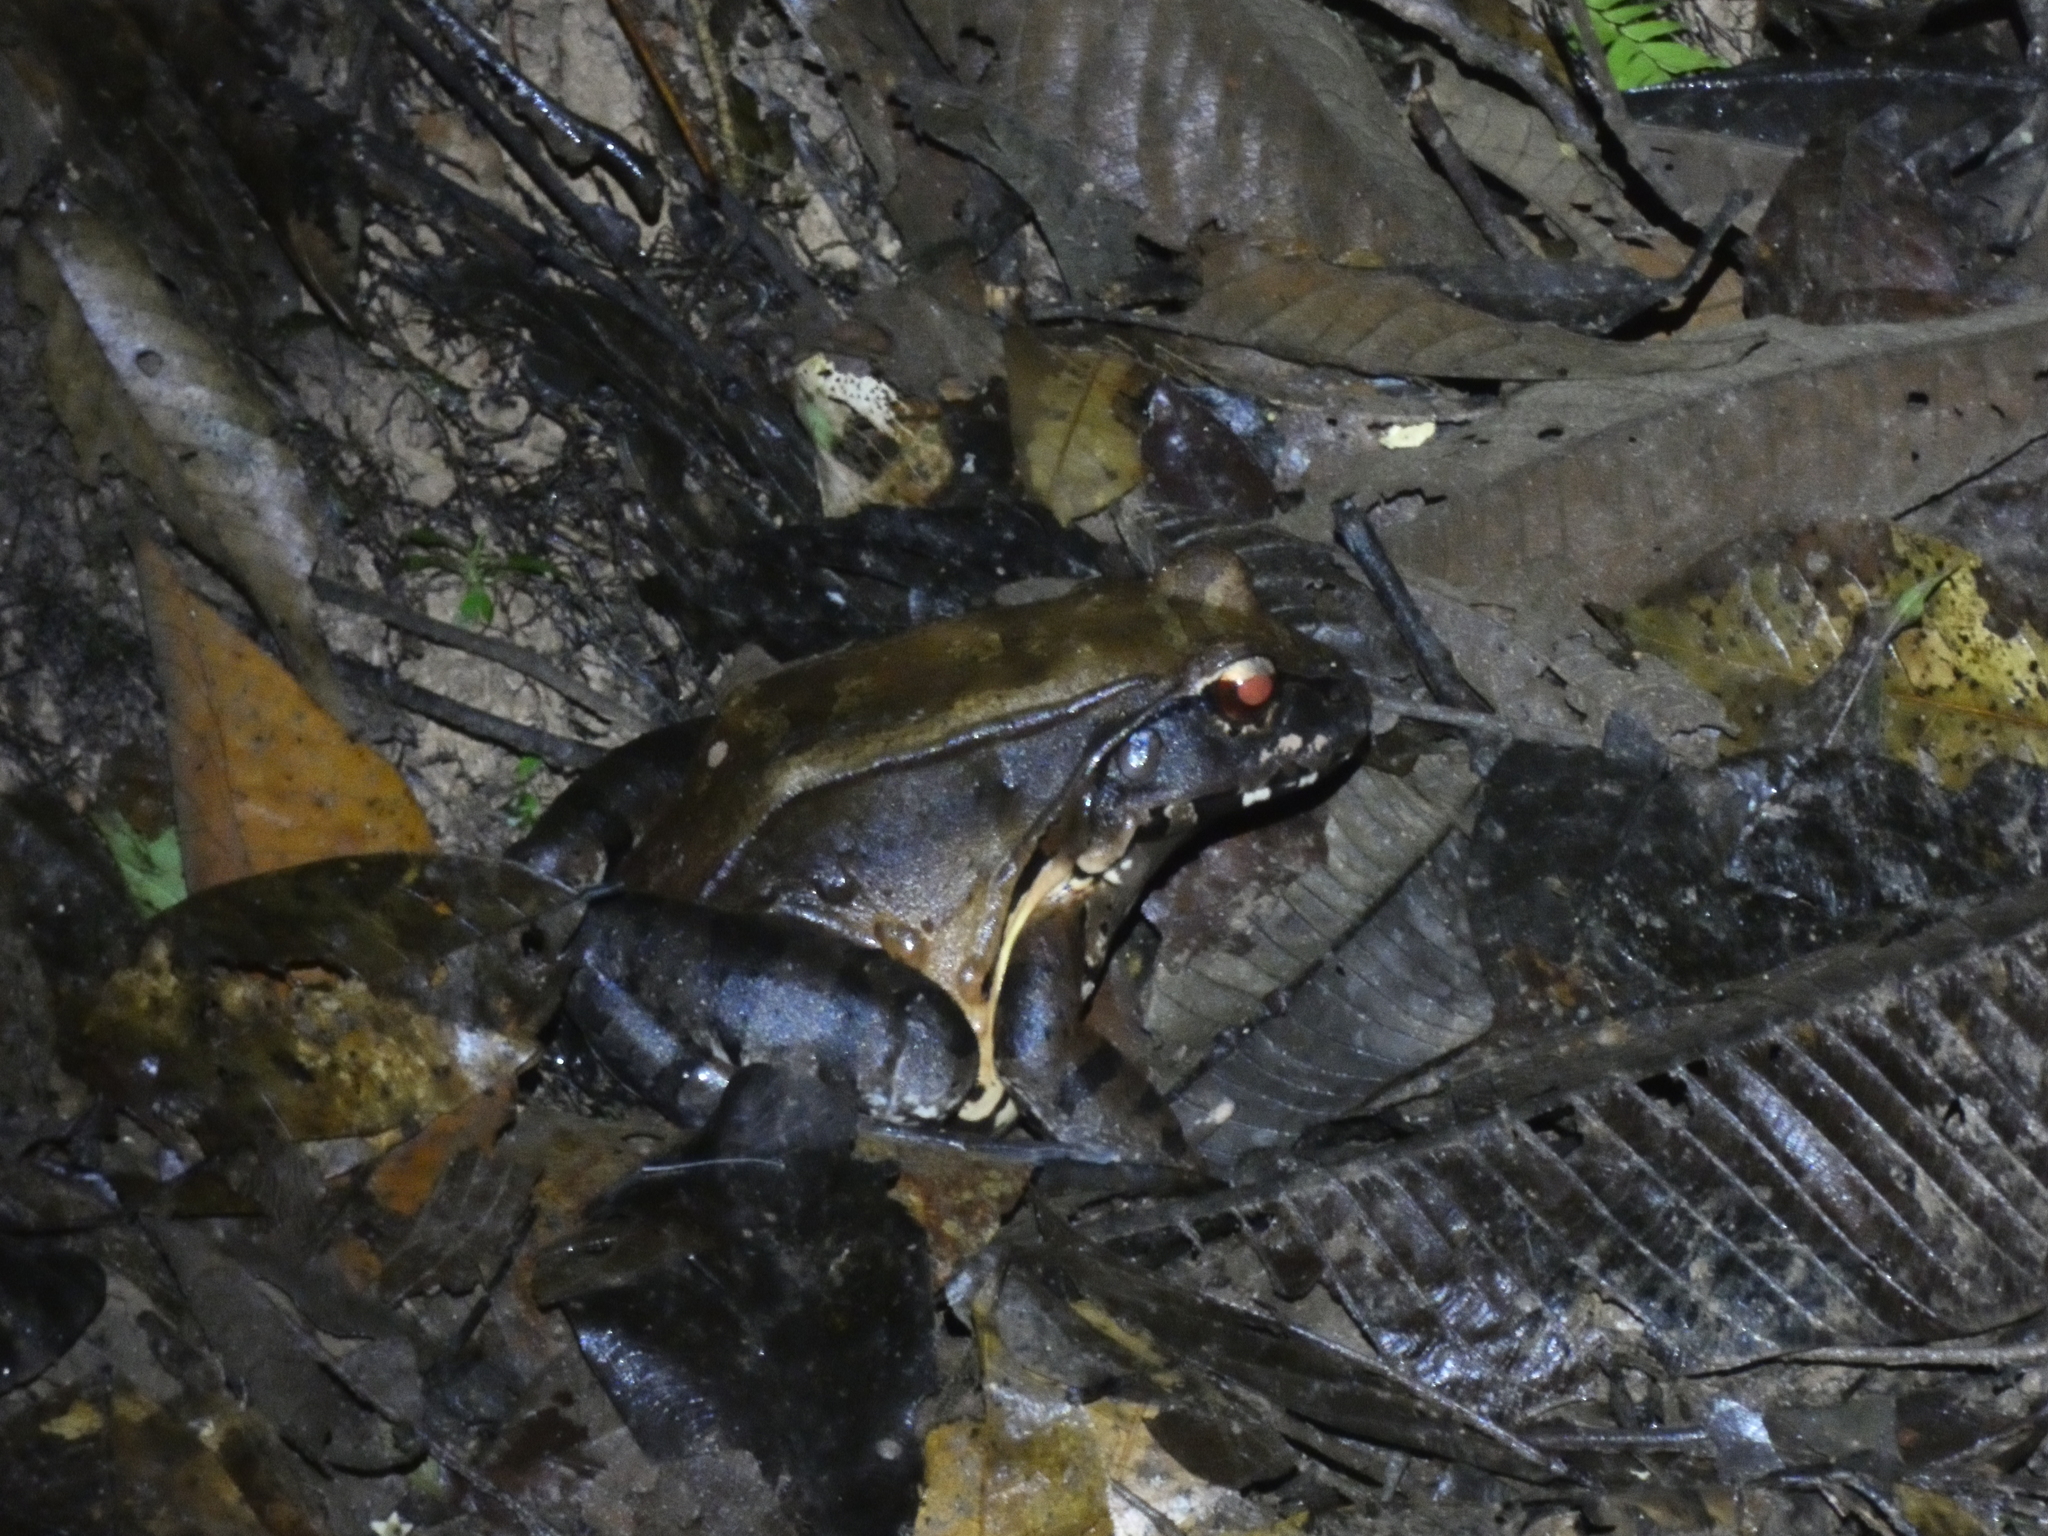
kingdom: Animalia
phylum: Chordata
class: Amphibia
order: Anura
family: Leptodactylidae
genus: Leptodactylus
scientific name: Leptodactylus pentadactylus
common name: Smoky jungle frog
